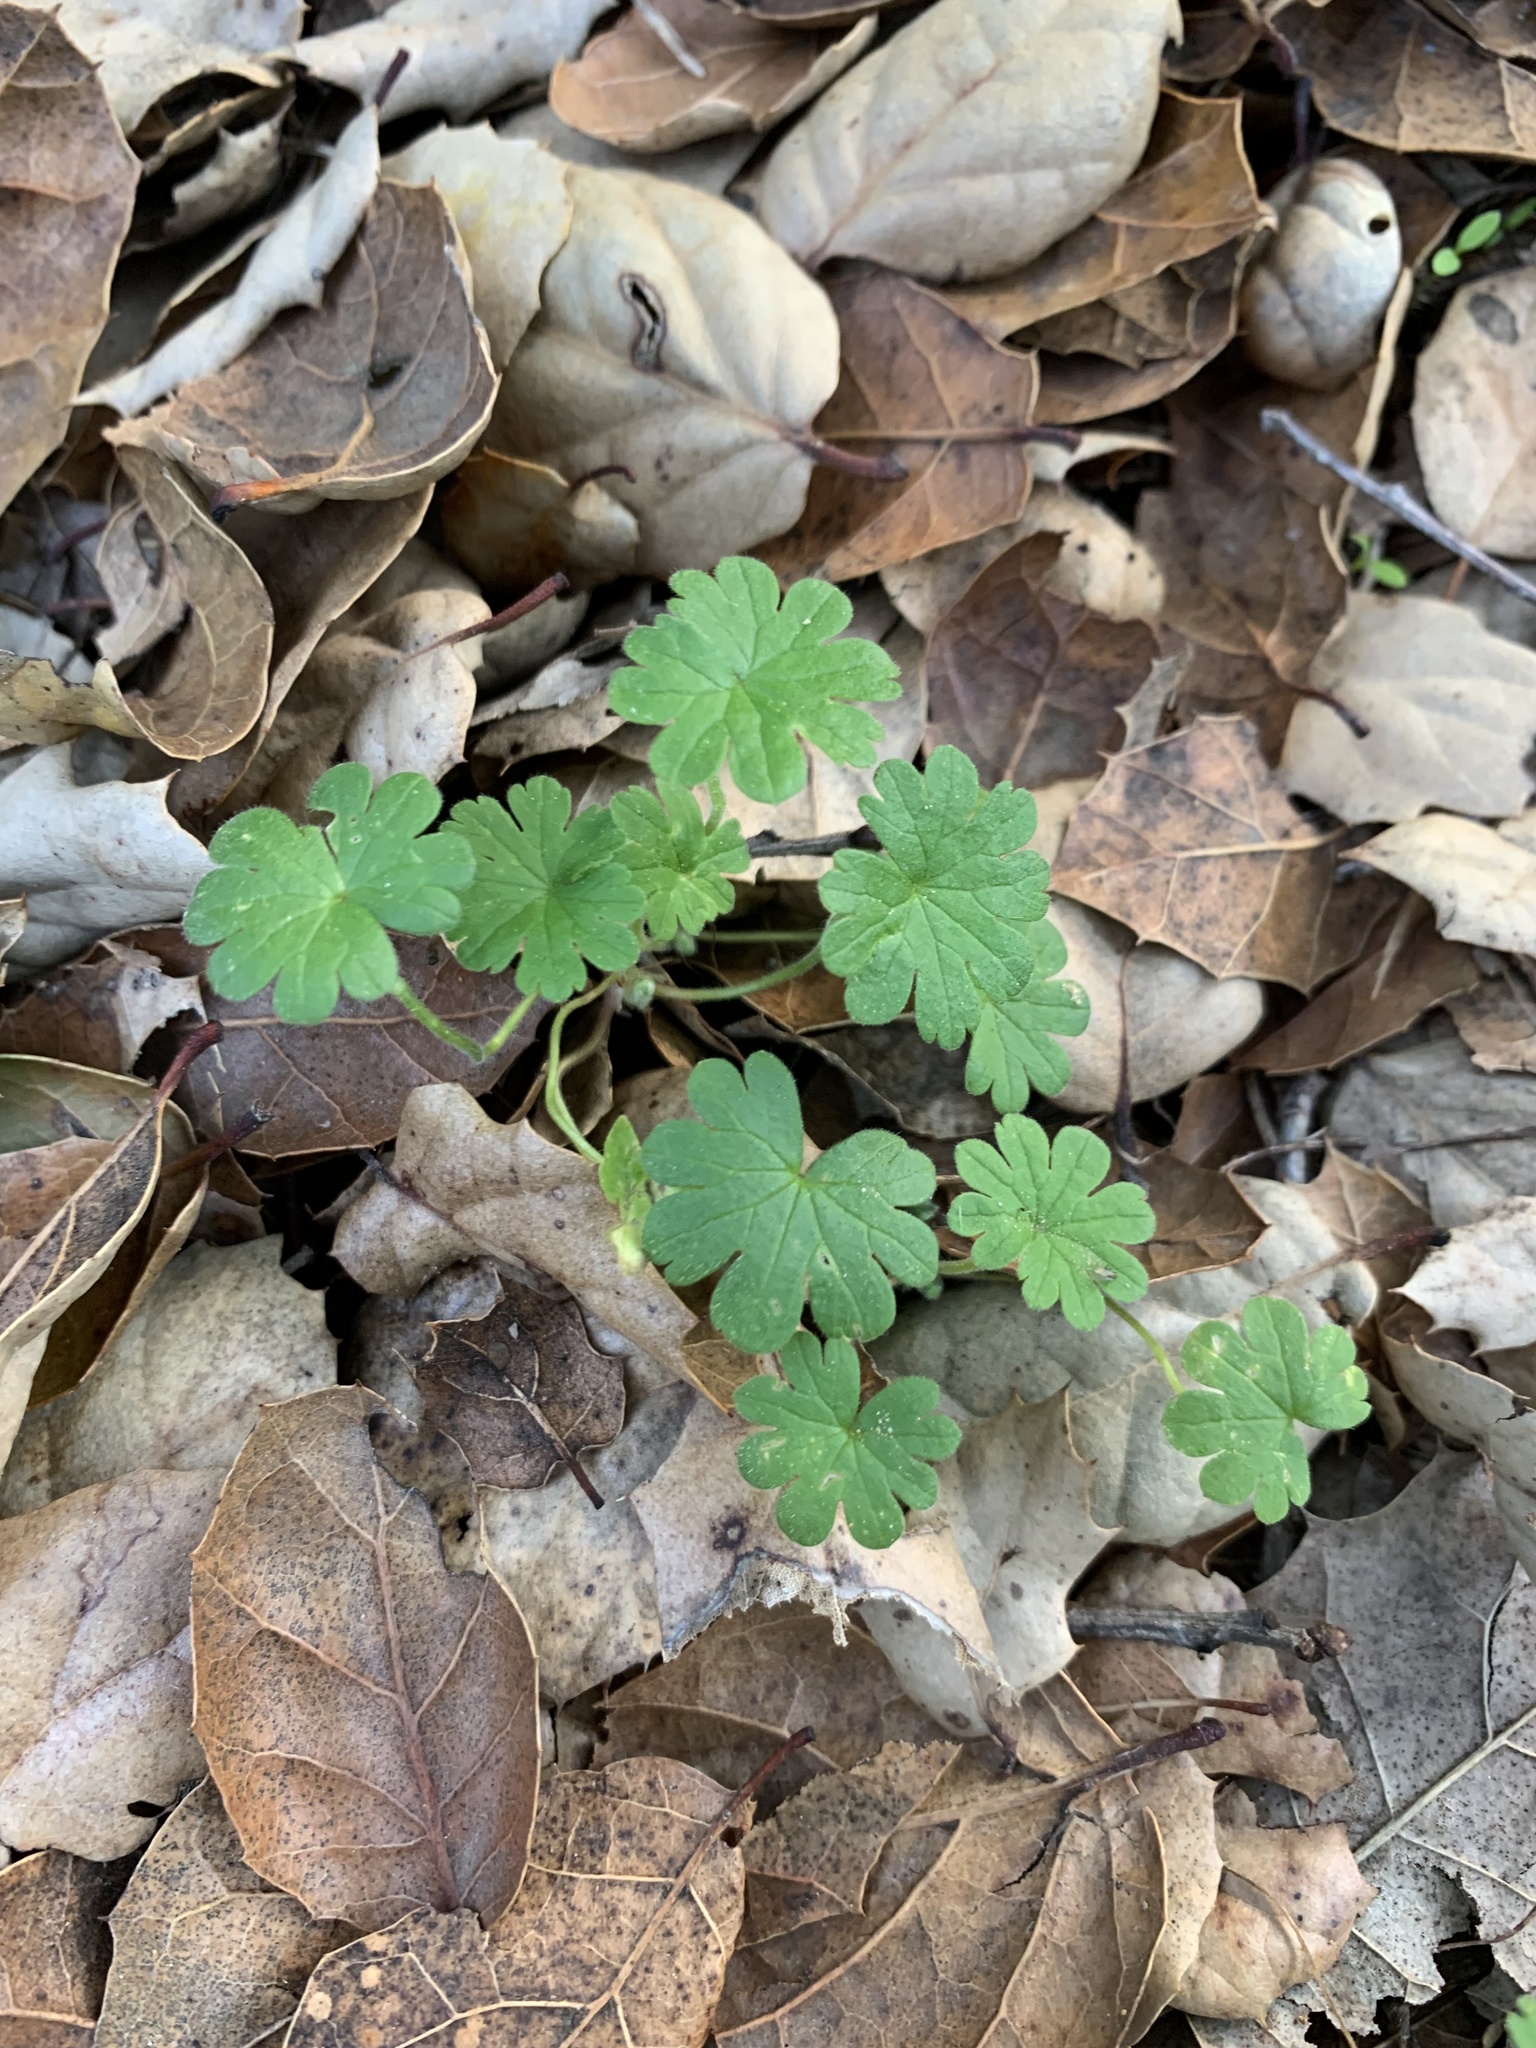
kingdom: Plantae
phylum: Tracheophyta
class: Magnoliopsida
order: Geraniales
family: Geraniaceae
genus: Geranium
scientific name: Geranium
